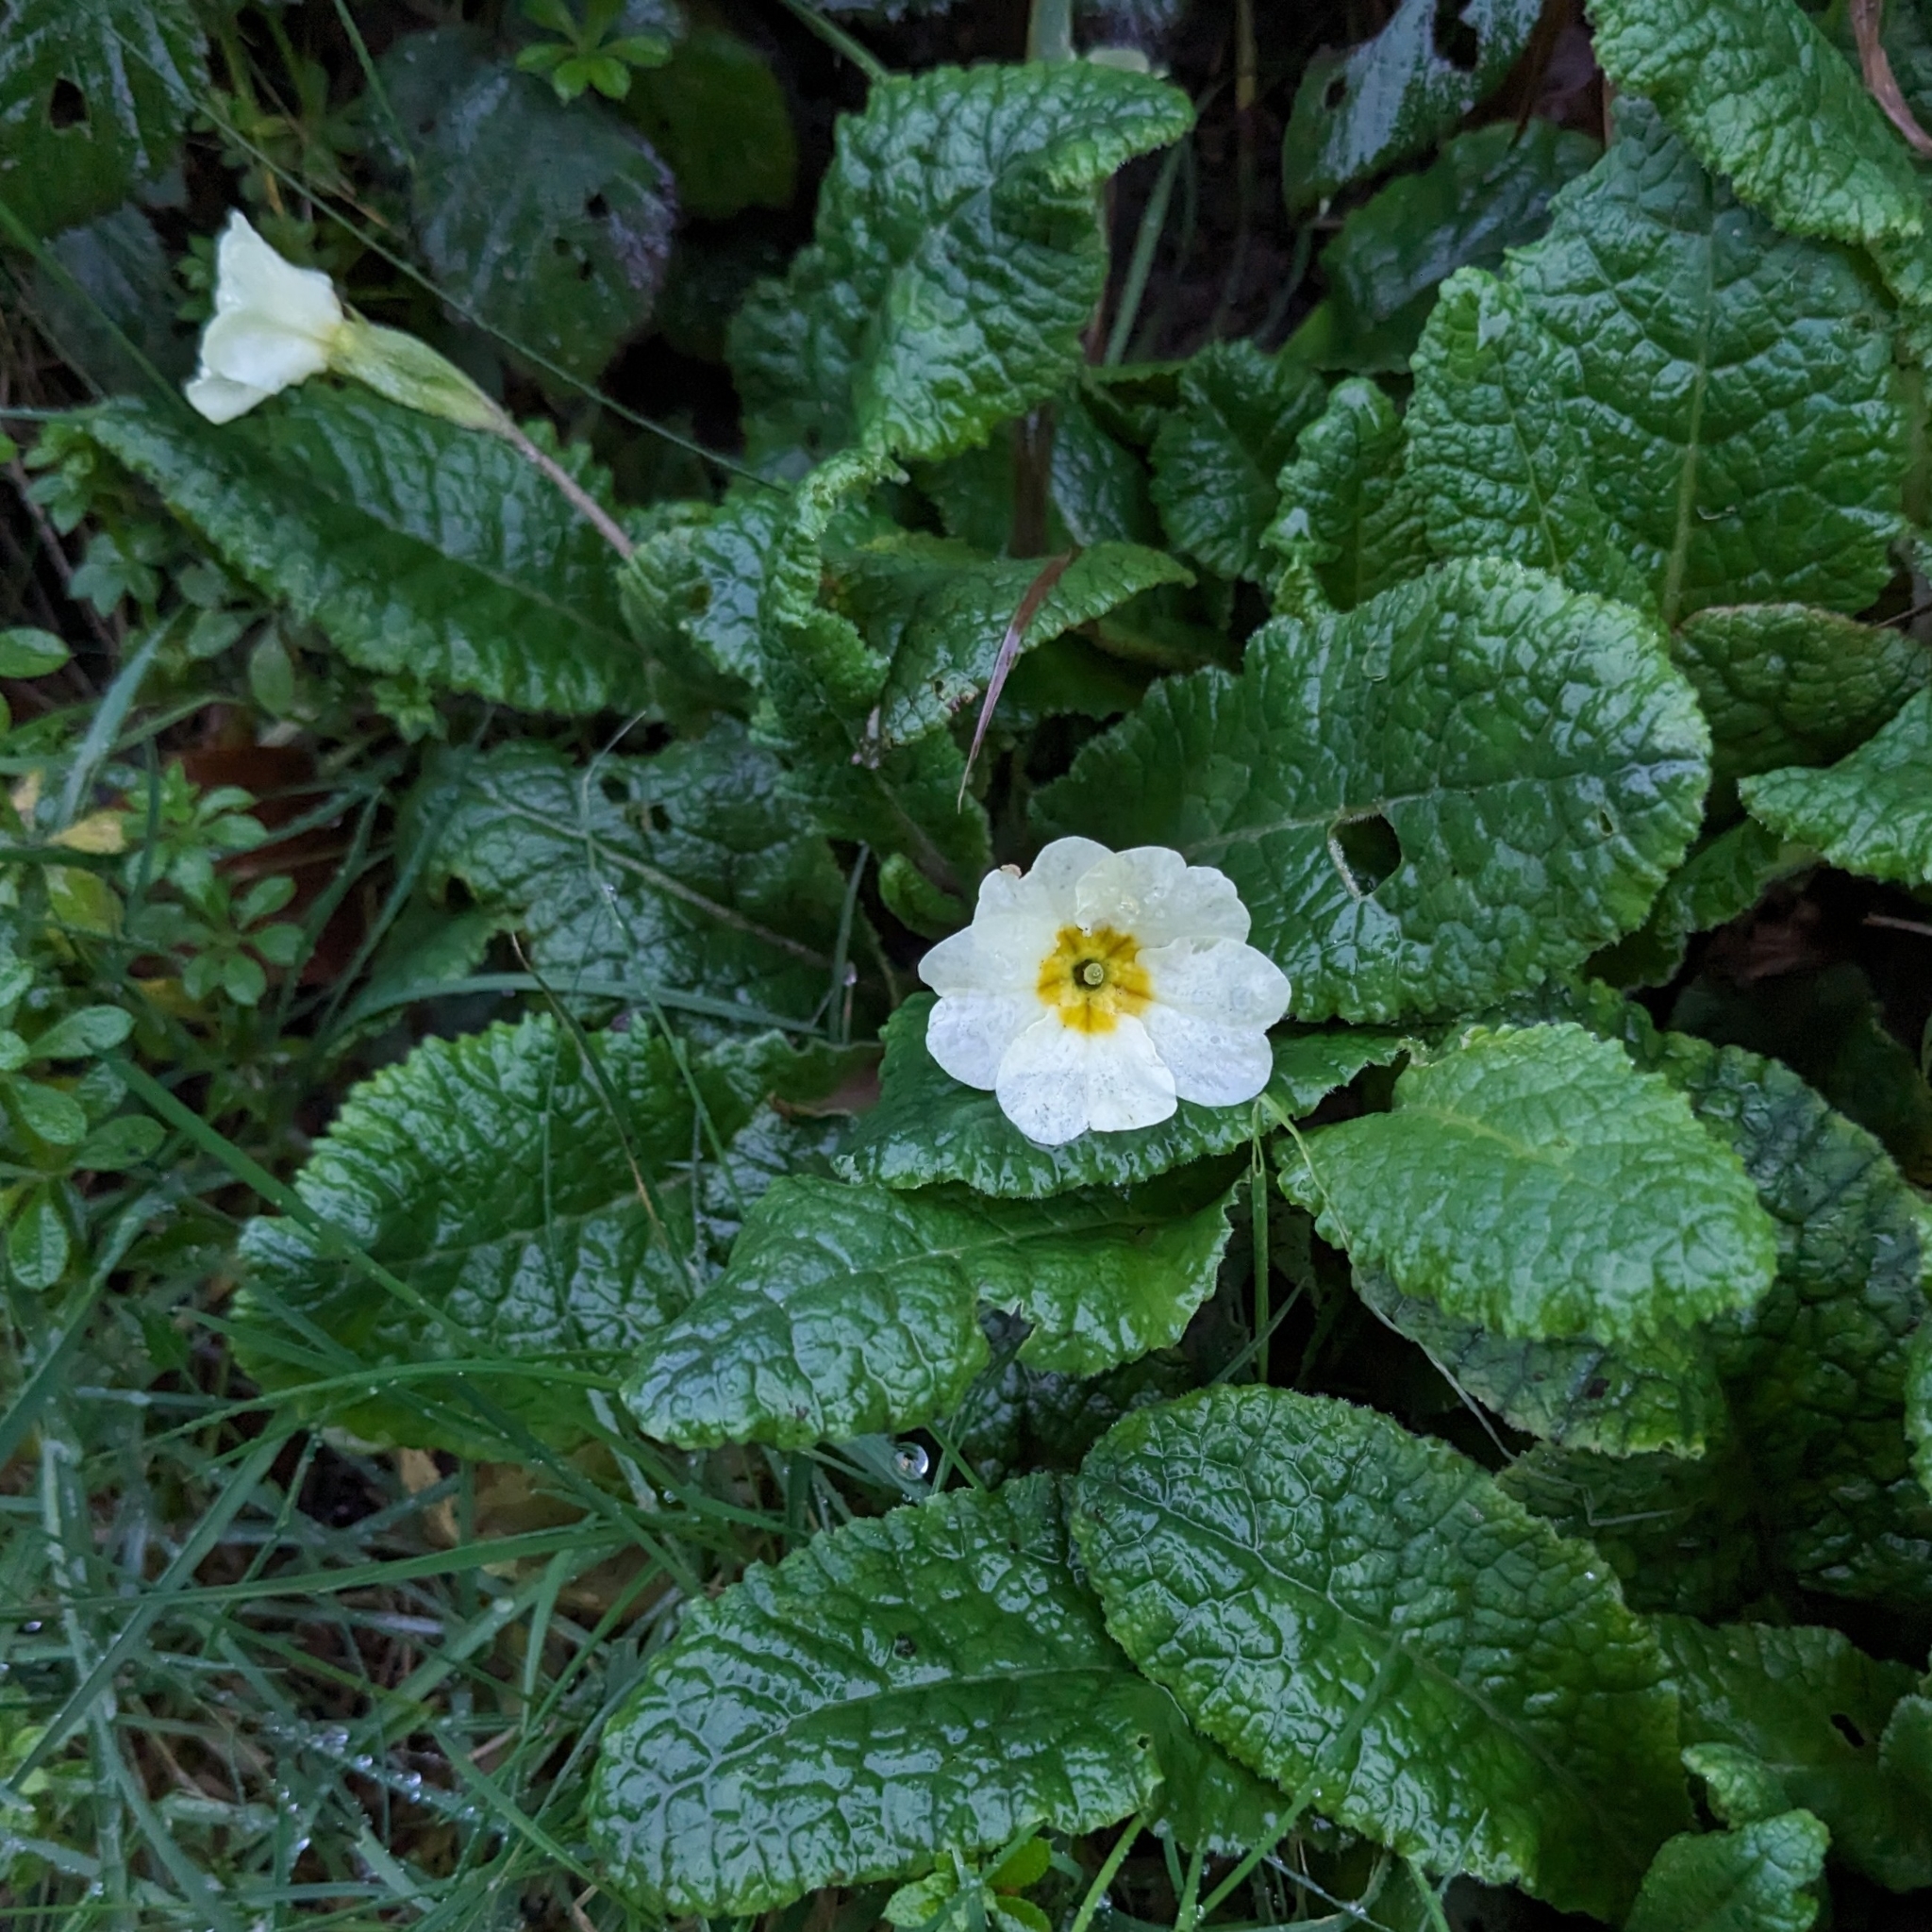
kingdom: Plantae
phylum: Tracheophyta
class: Magnoliopsida
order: Ericales
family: Primulaceae
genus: Primula
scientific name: Primula vulgaris
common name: Primrose
